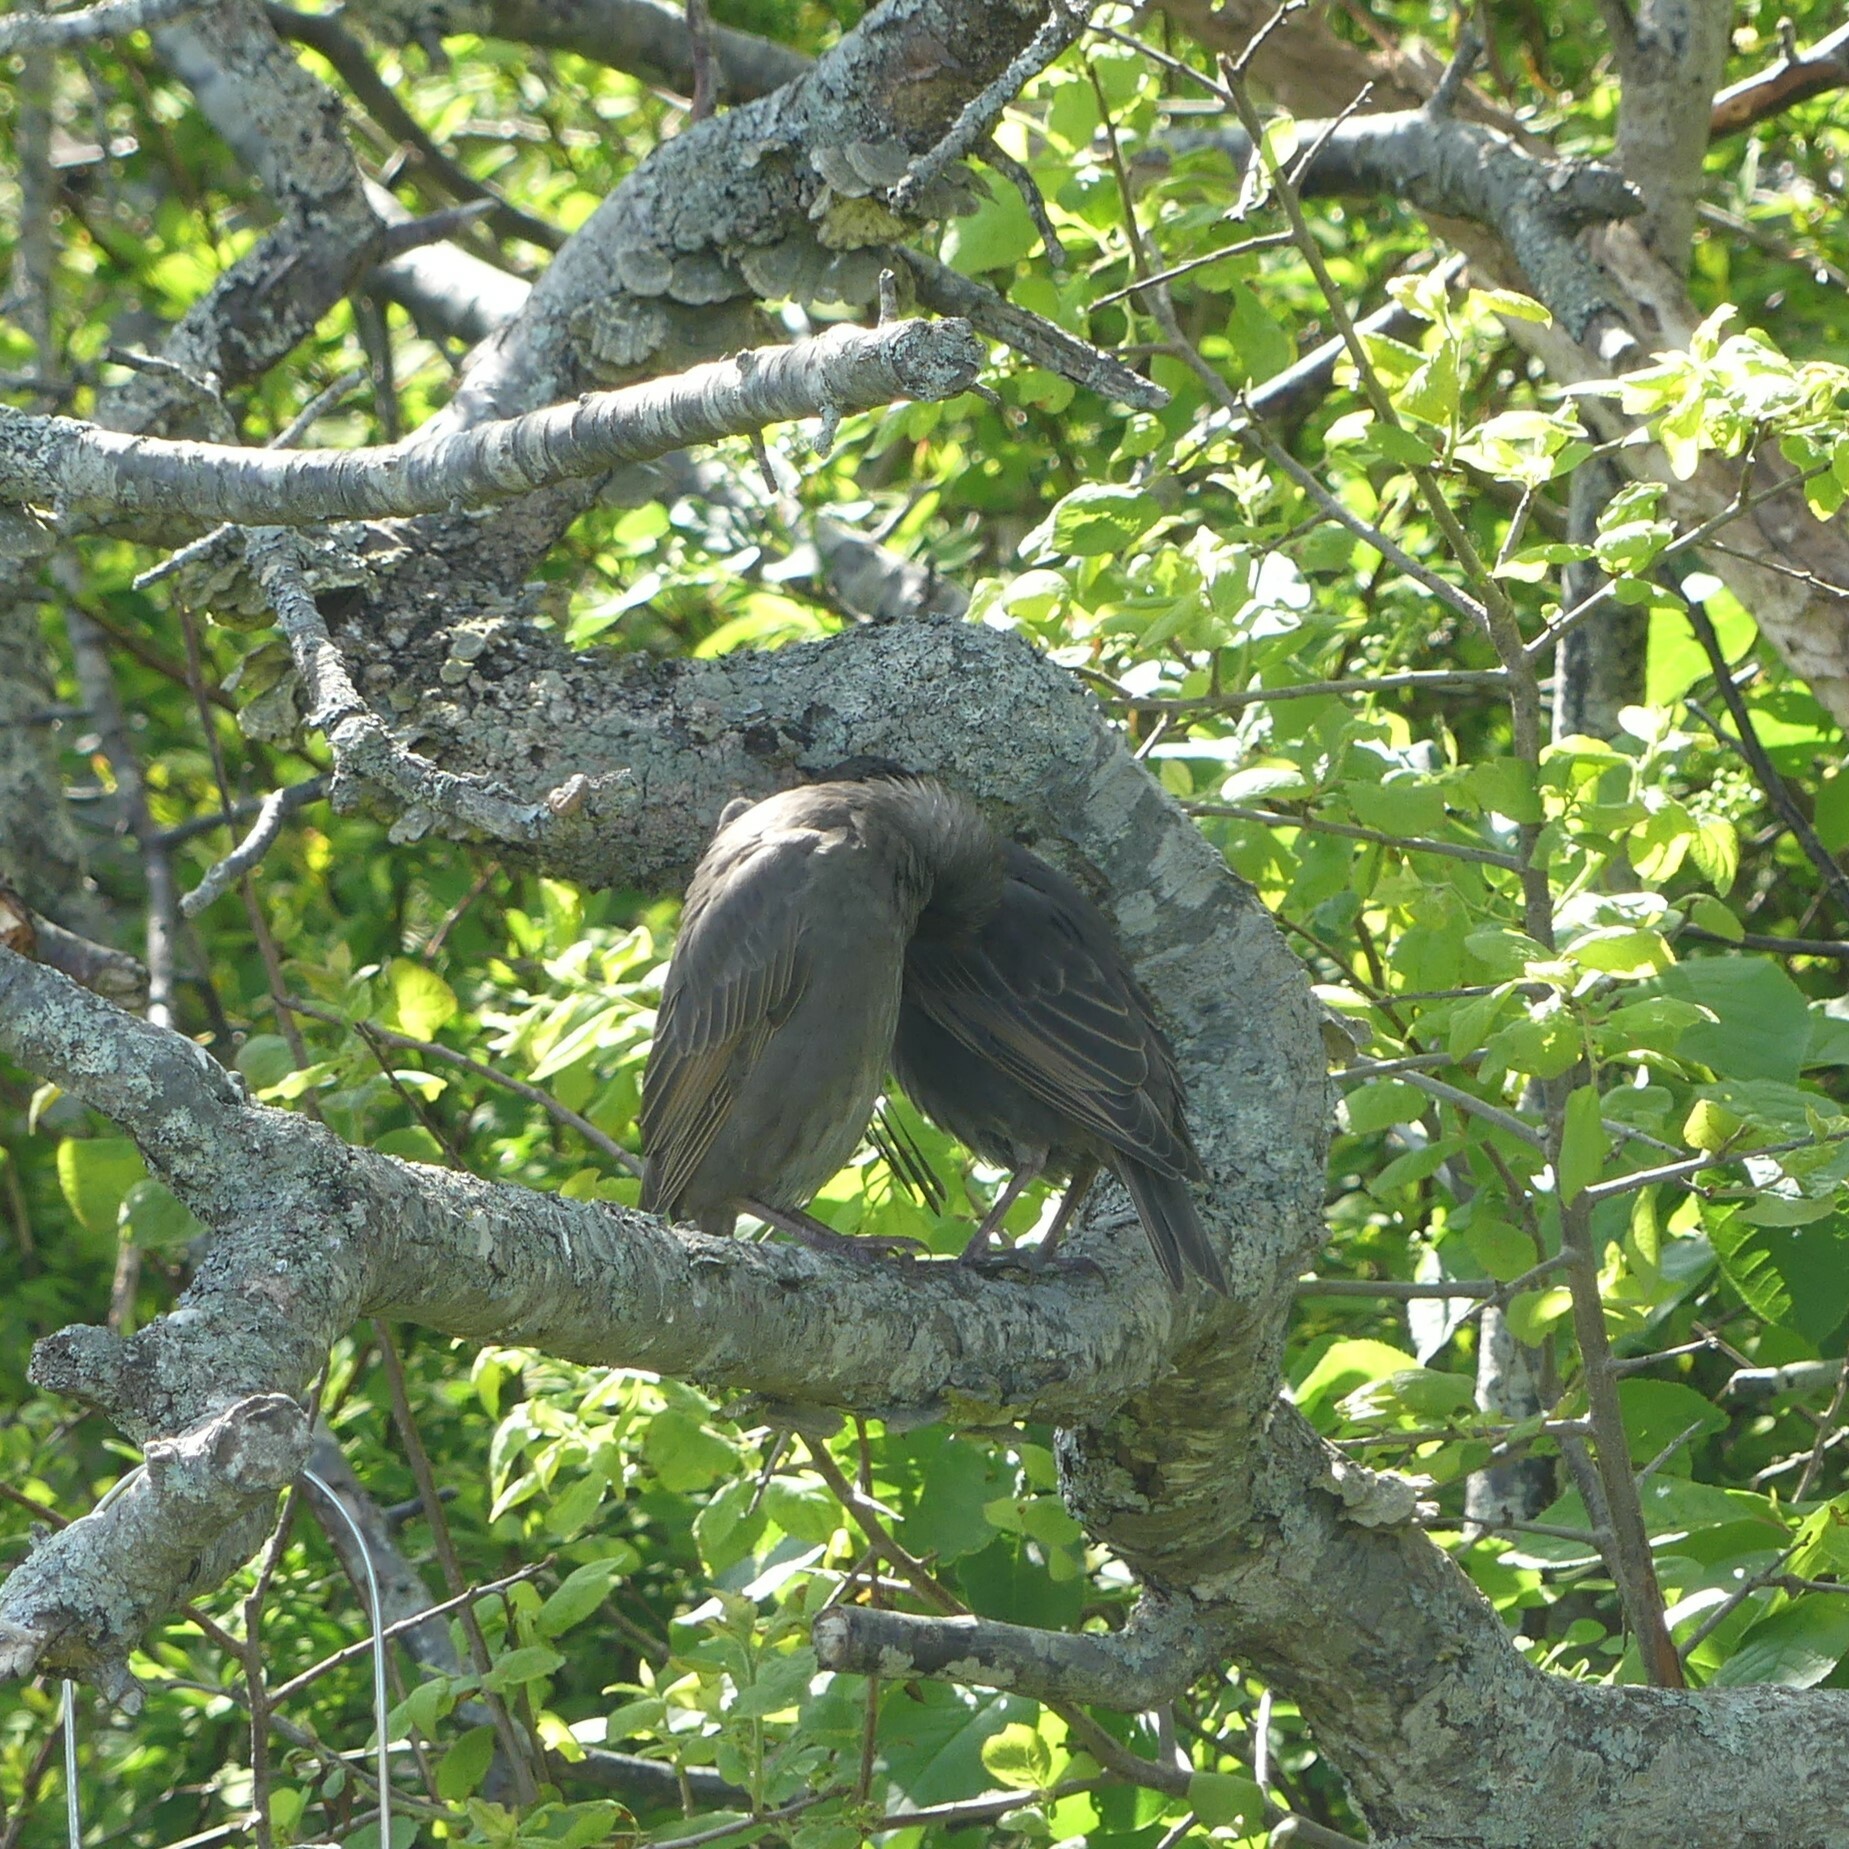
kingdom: Animalia
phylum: Chordata
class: Aves
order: Passeriformes
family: Sturnidae
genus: Sturnus
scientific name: Sturnus vulgaris
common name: Common starling
